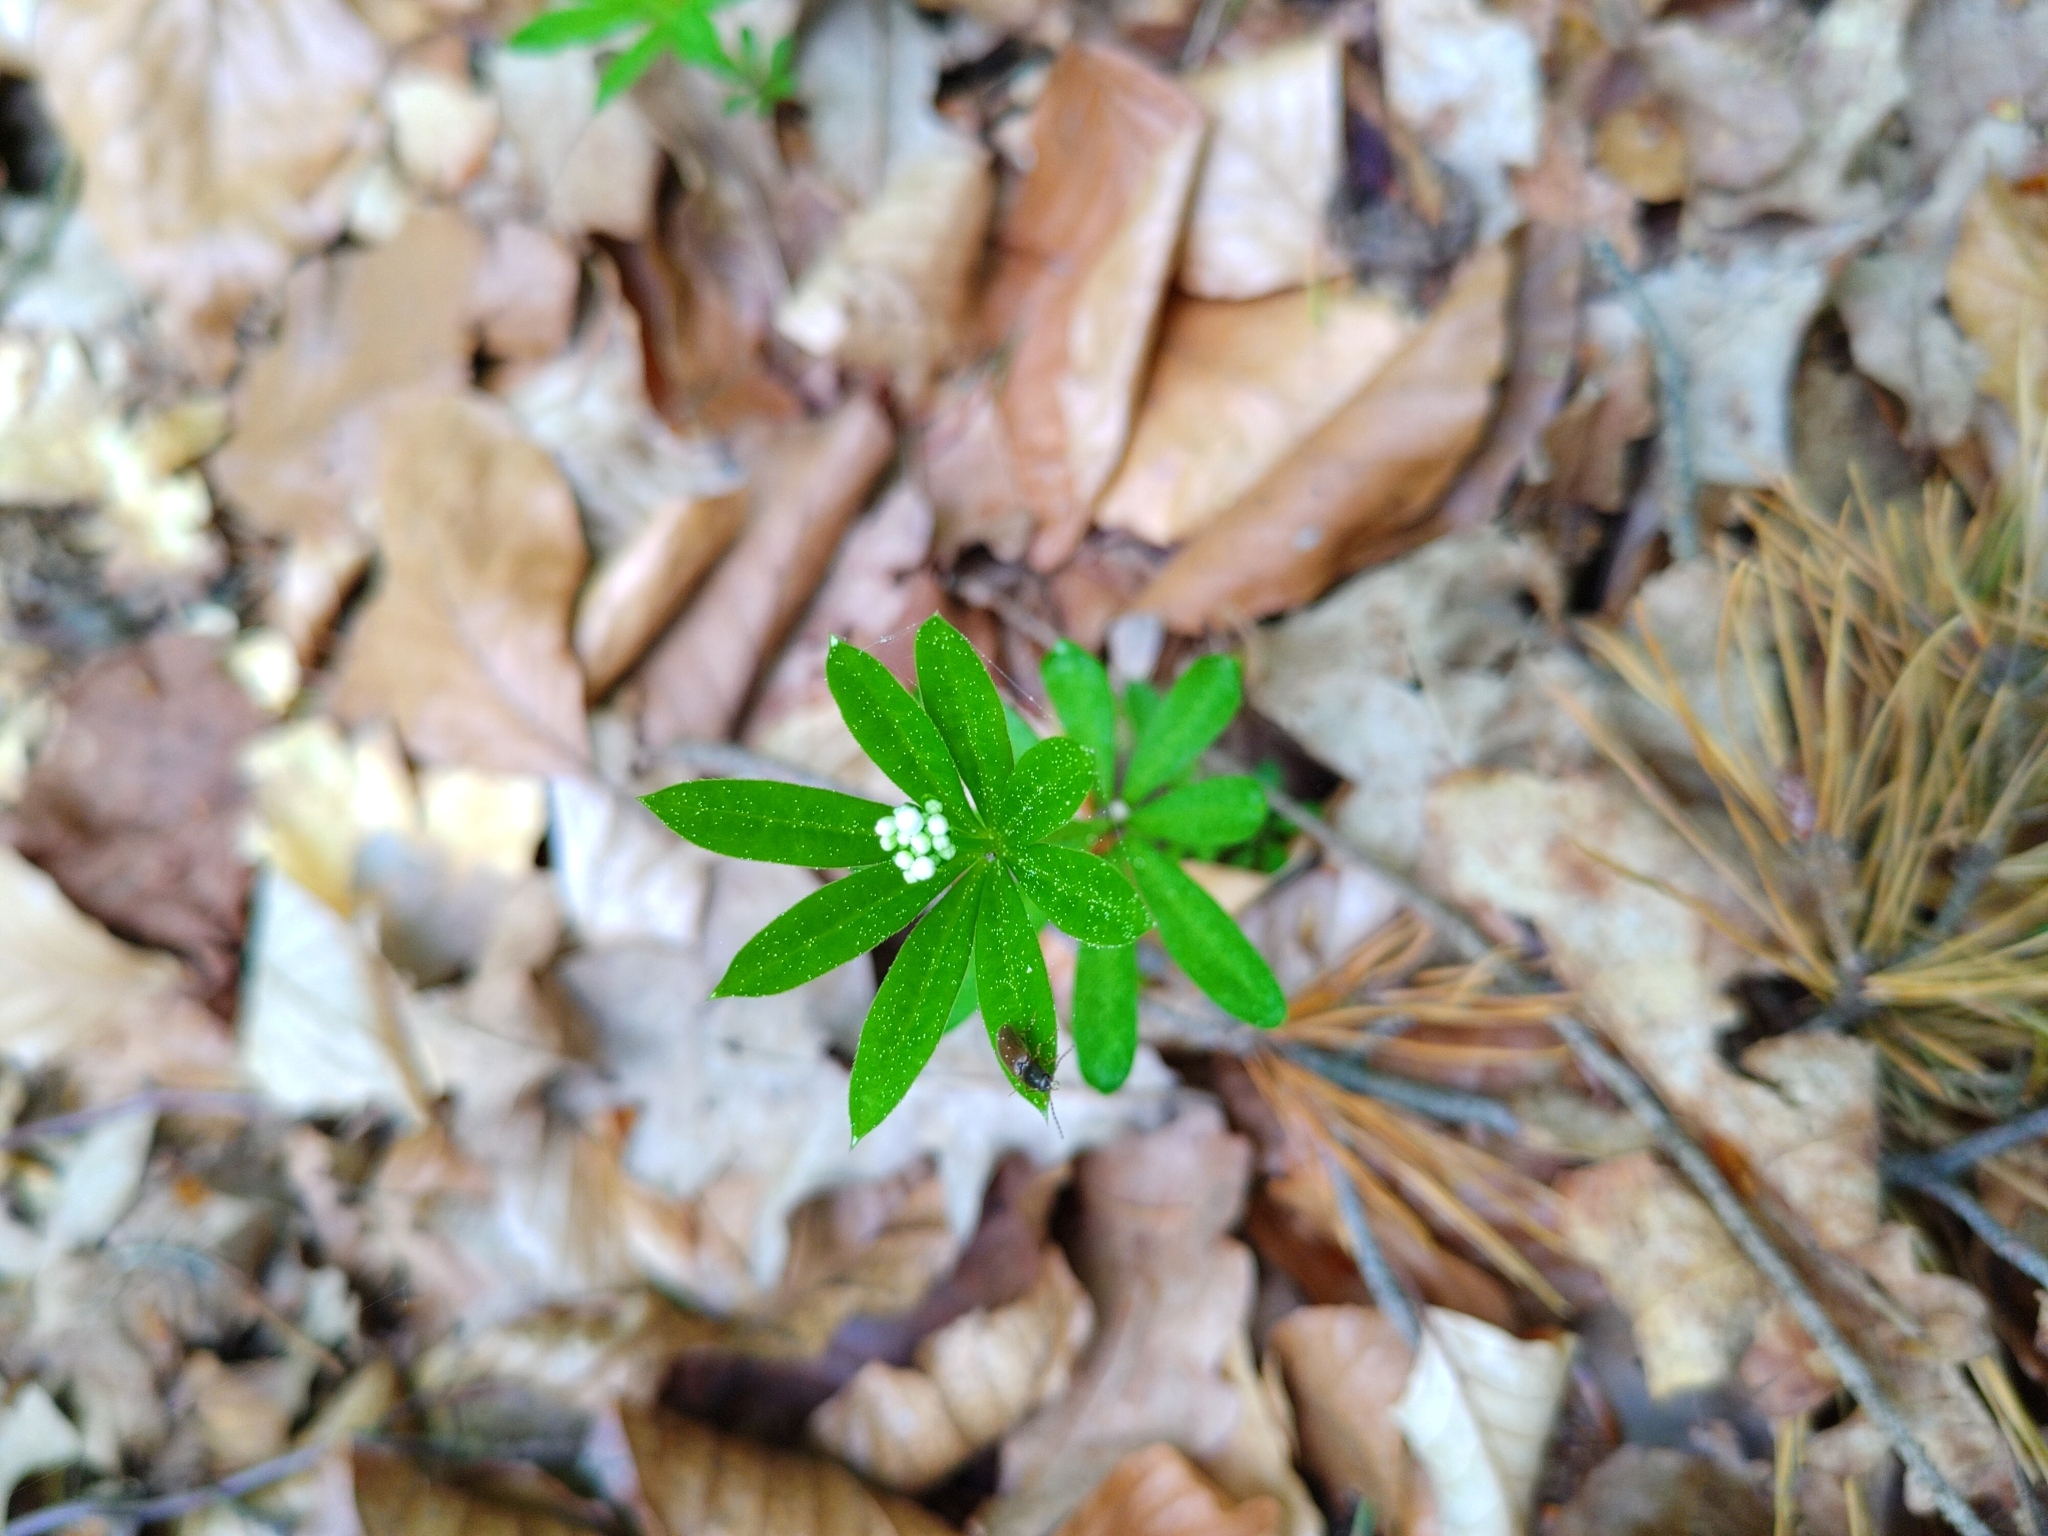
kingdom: Plantae
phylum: Tracheophyta
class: Magnoliopsida
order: Gentianales
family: Rubiaceae
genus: Galium
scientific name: Galium odoratum
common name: Sweet woodruff
